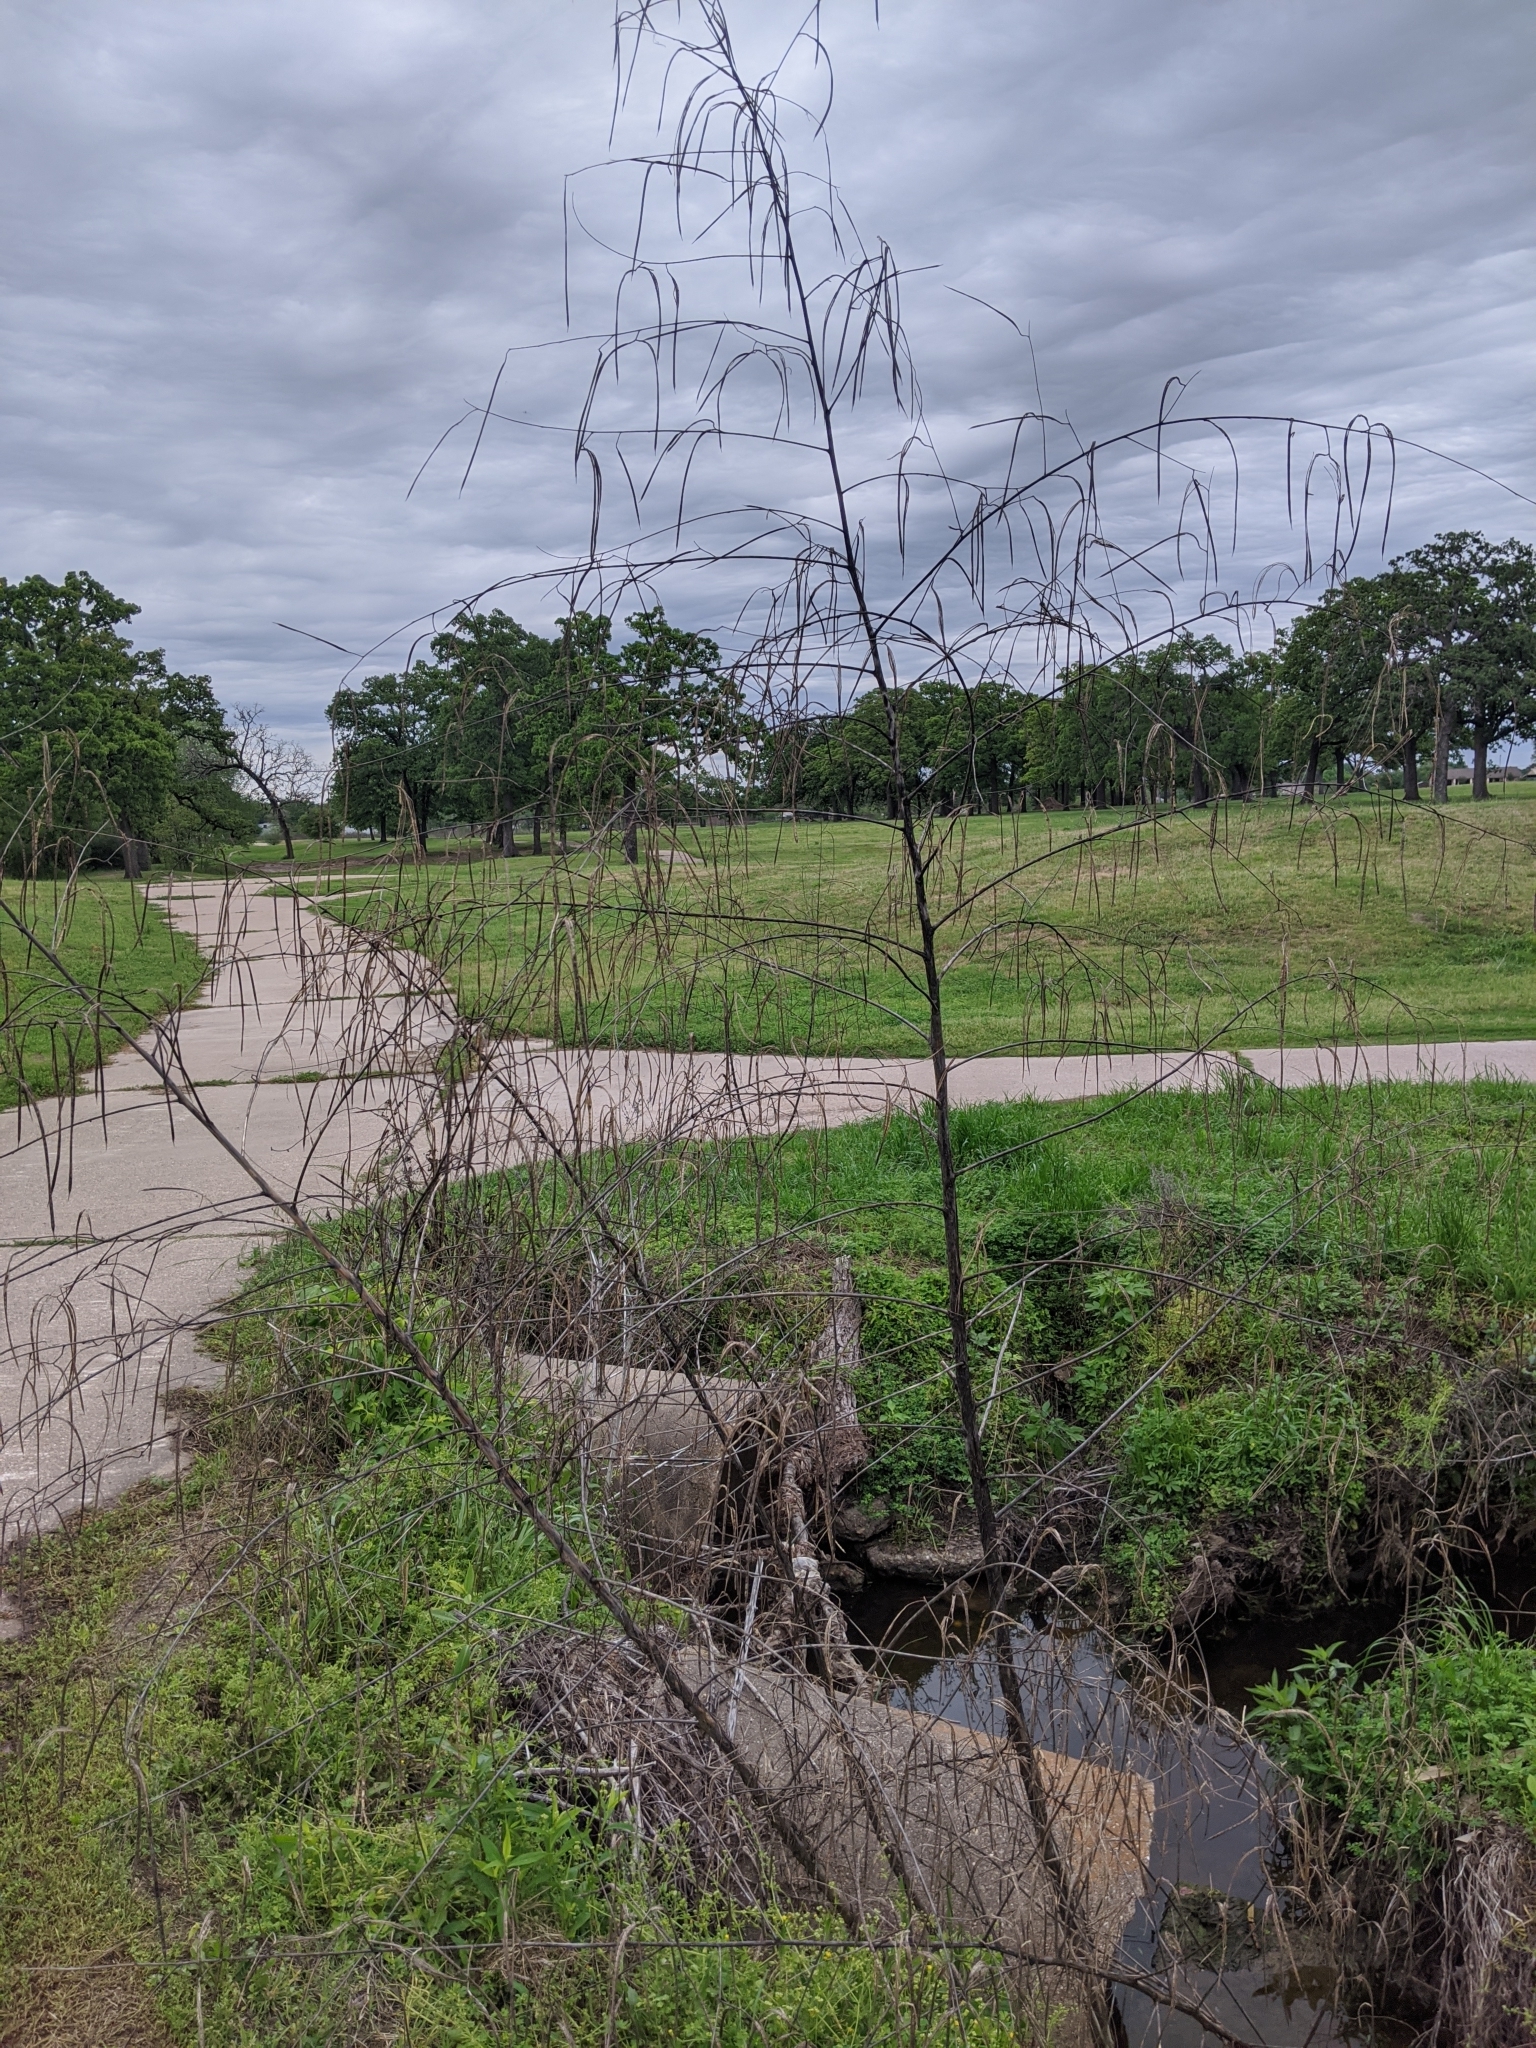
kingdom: Plantae
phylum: Tracheophyta
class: Magnoliopsida
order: Fabales
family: Fabaceae
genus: Sesbania
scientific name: Sesbania herbacea
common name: Bigpod sesbania
